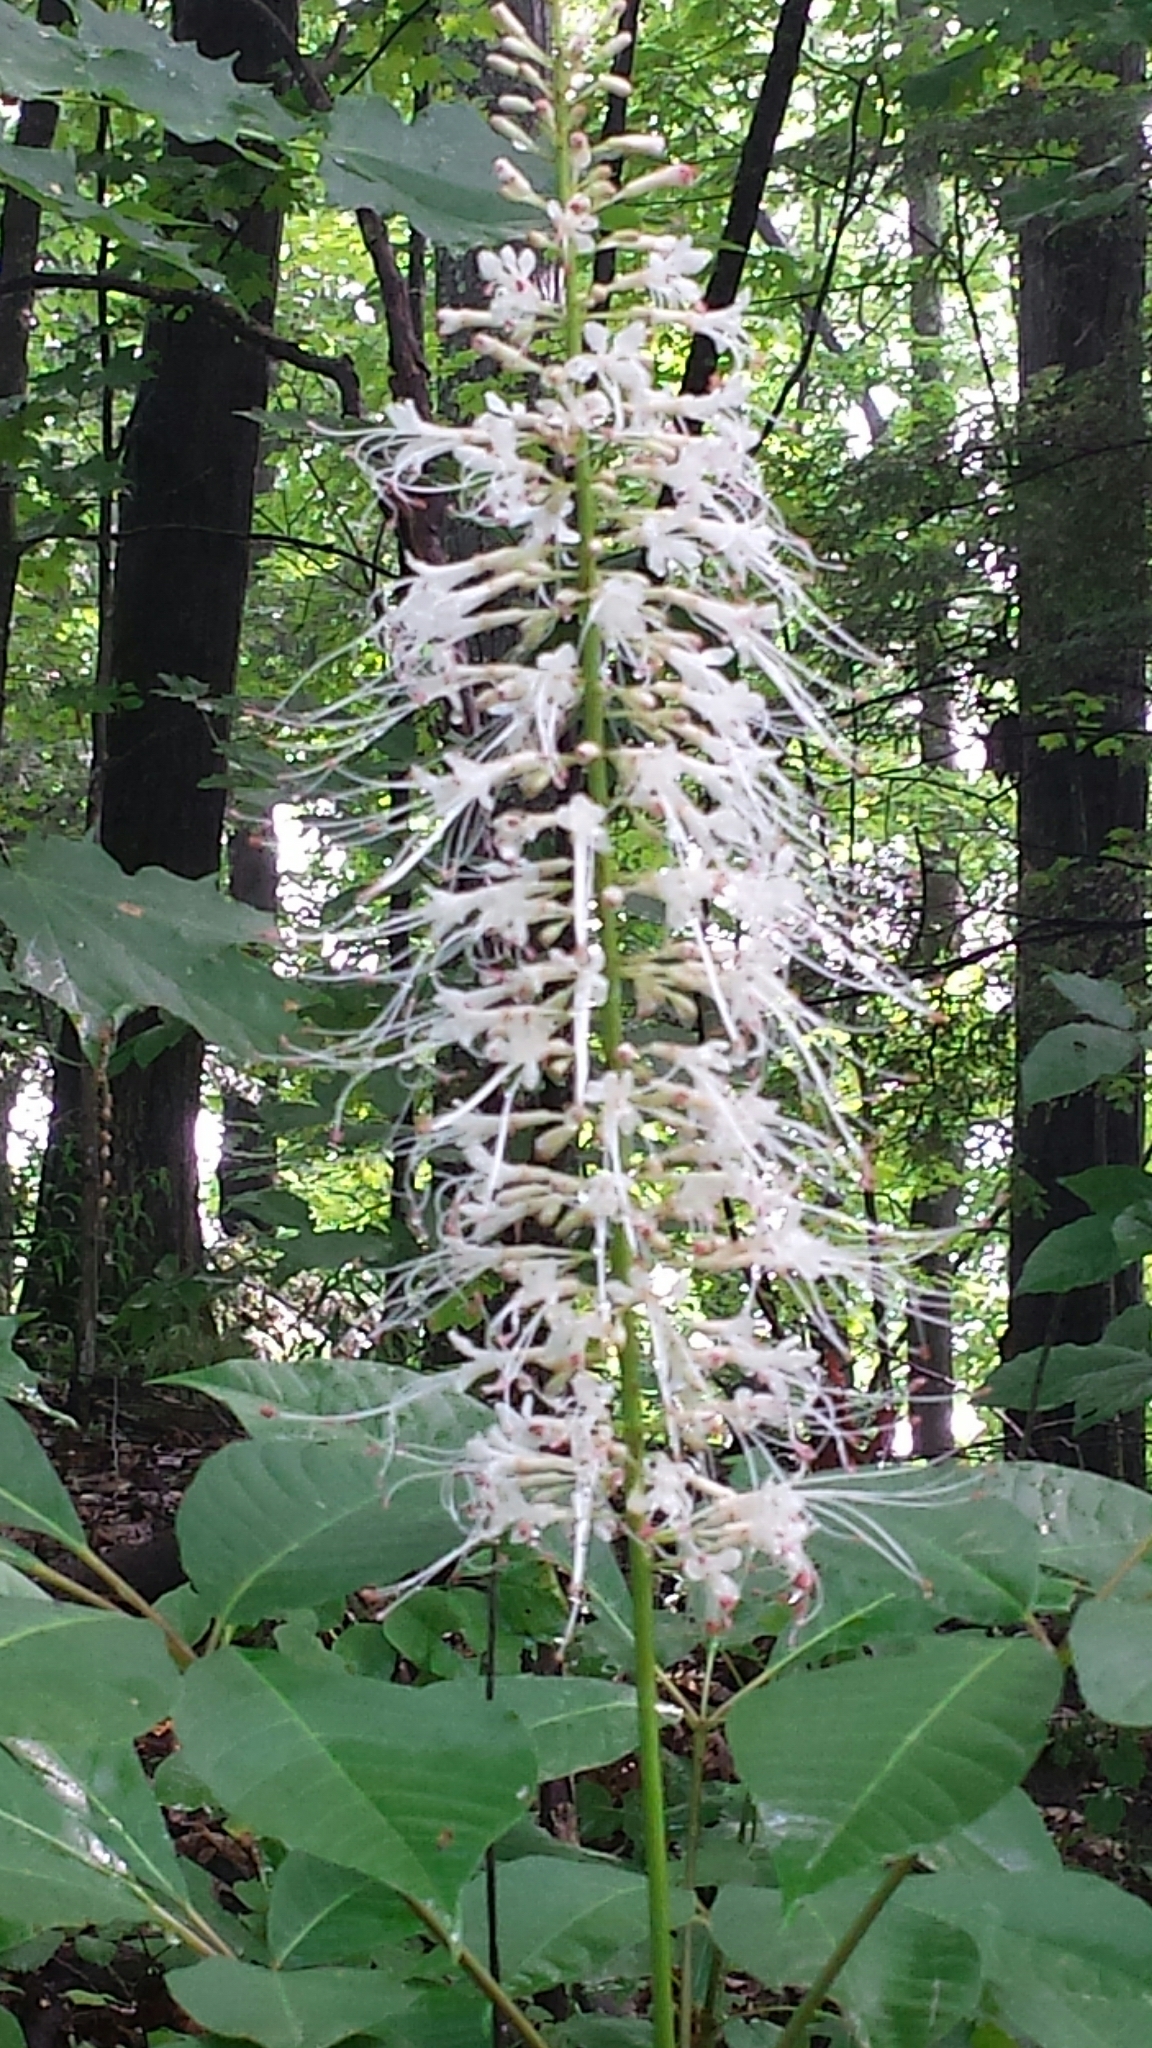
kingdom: Plantae
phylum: Tracheophyta
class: Magnoliopsida
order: Sapindales
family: Sapindaceae
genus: Aesculus
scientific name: Aesculus parviflora
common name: Bottlebrush buckeye
